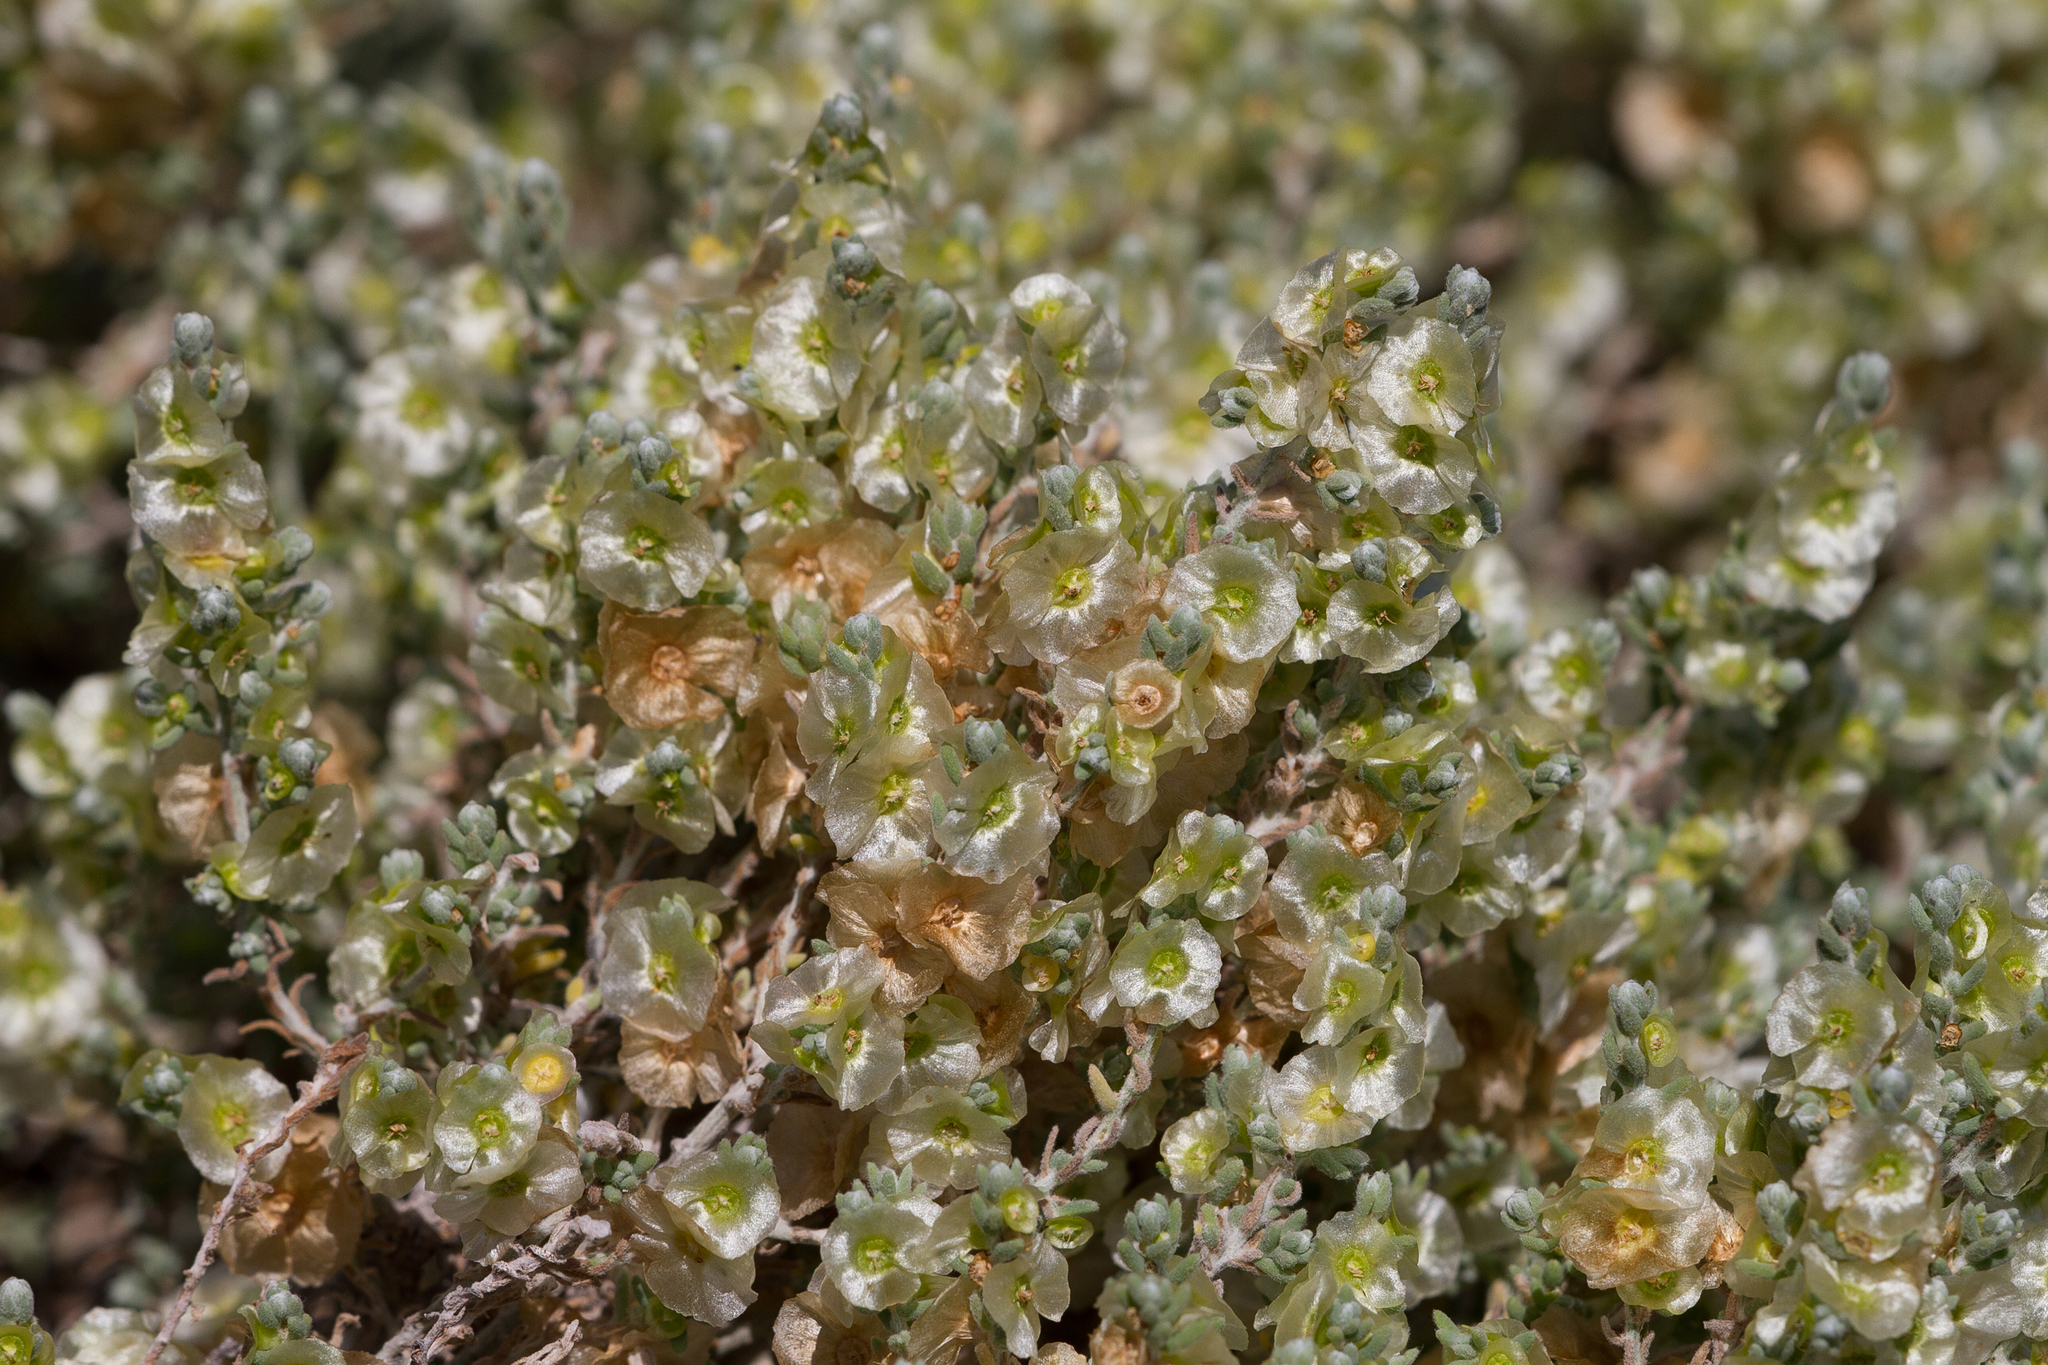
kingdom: Plantae
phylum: Tracheophyta
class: Magnoliopsida
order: Caryophyllales
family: Amaranthaceae
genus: Maireana
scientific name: Maireana appressa
